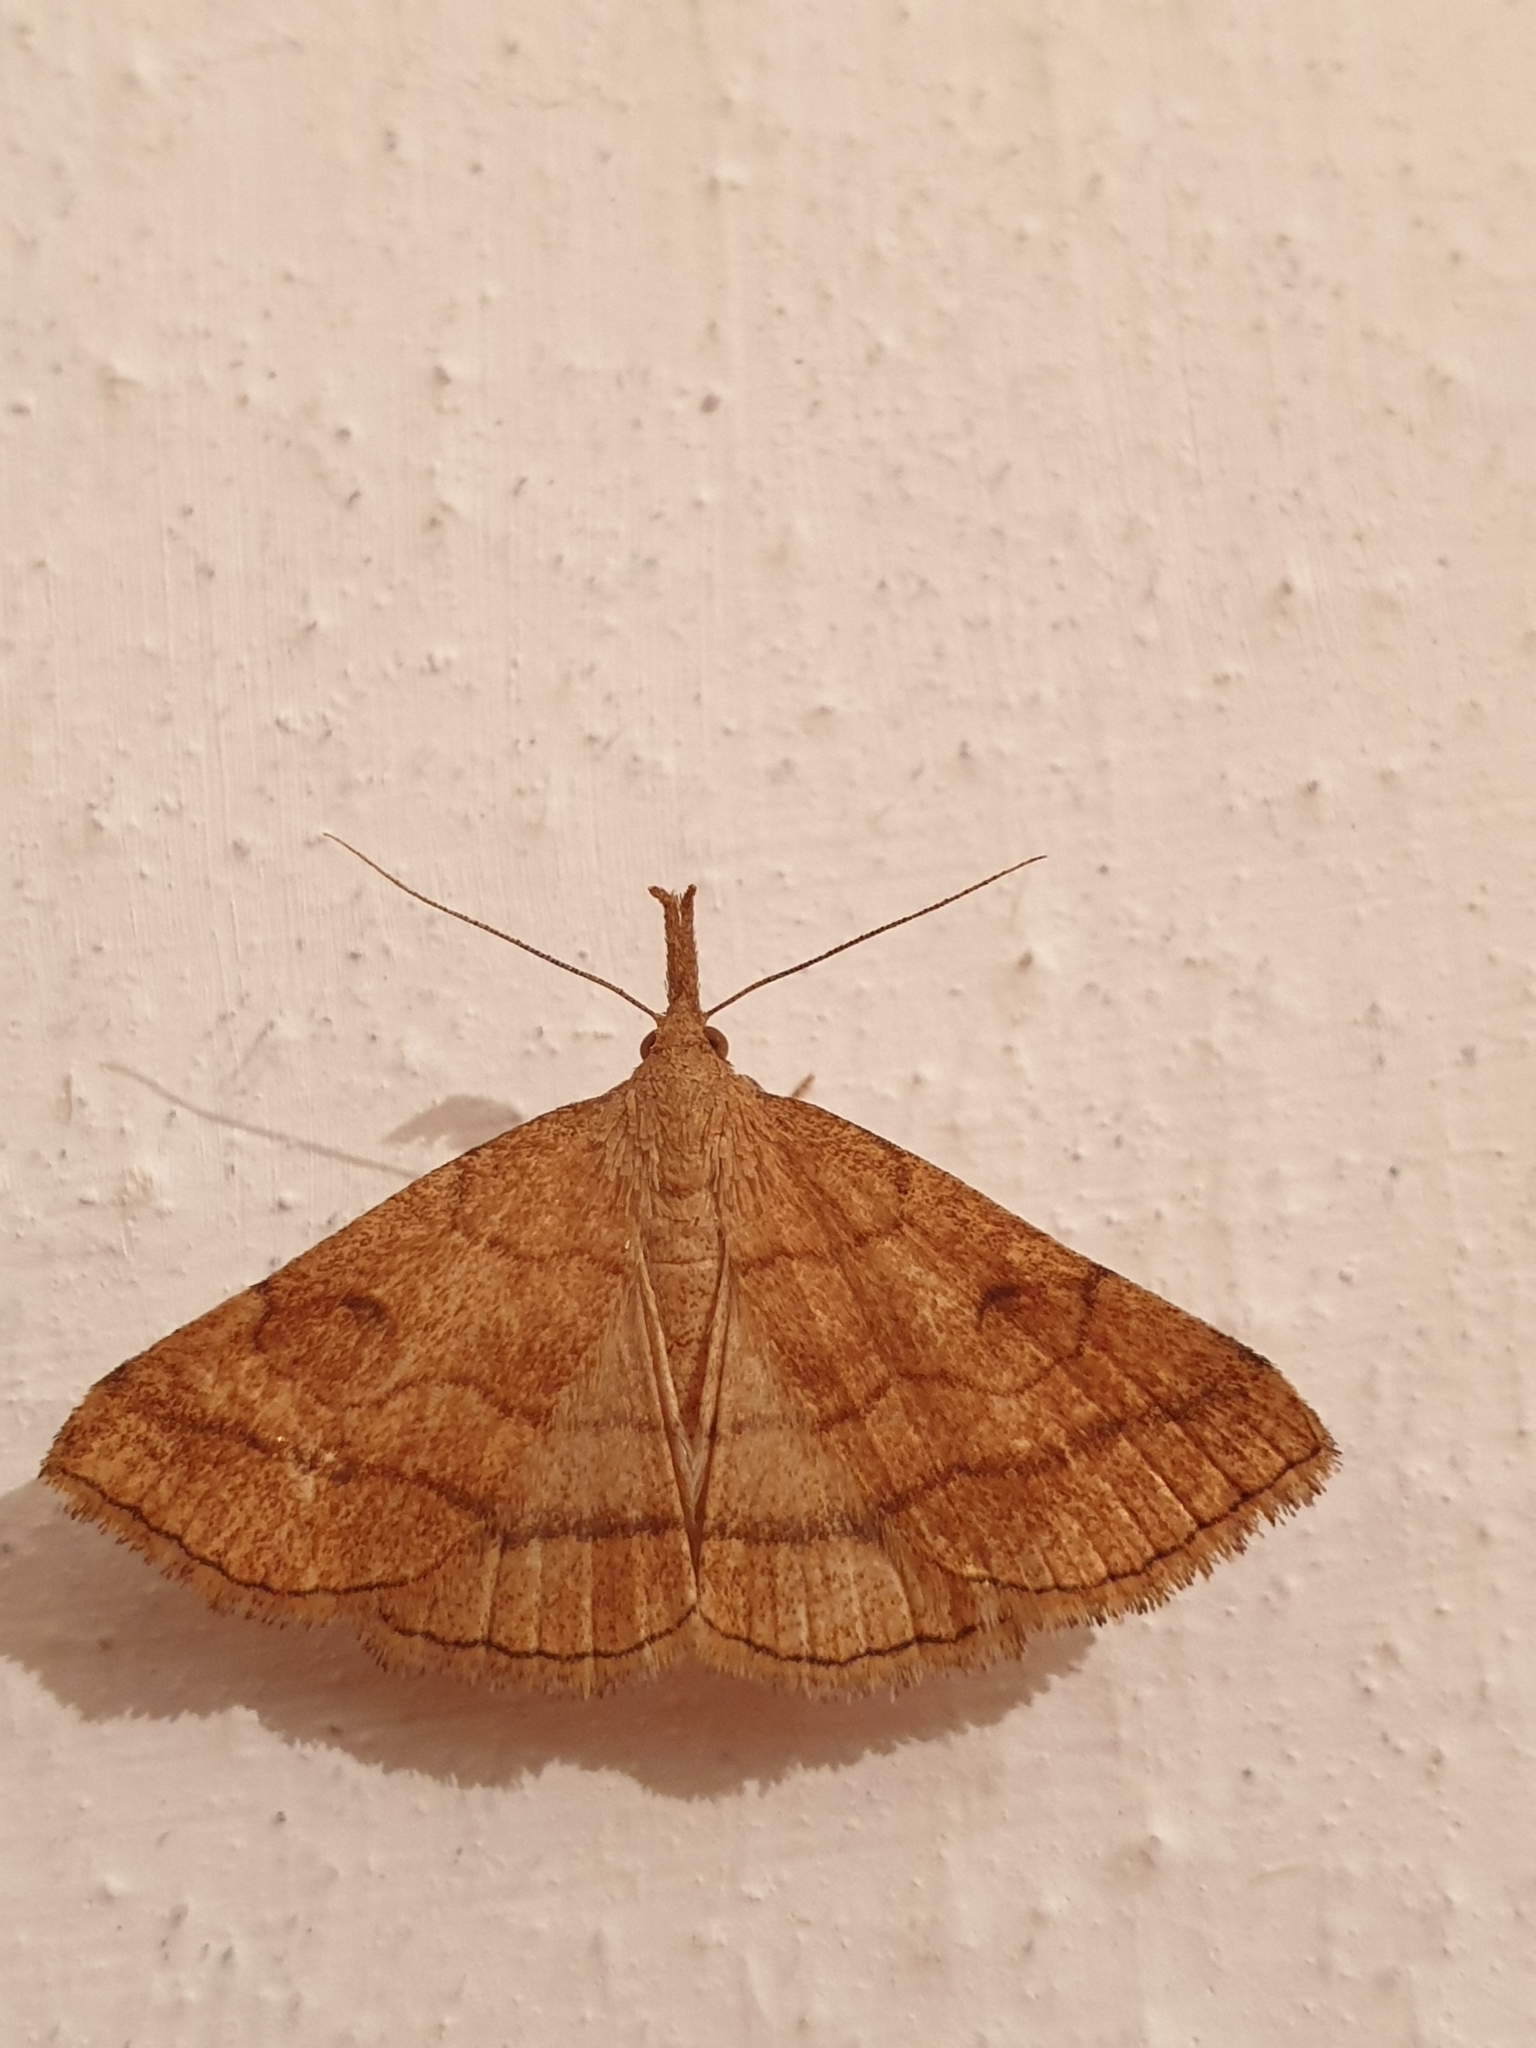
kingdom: Animalia
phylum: Arthropoda
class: Insecta
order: Lepidoptera
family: Erebidae
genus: Polypogon
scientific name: Polypogon gryphalis
